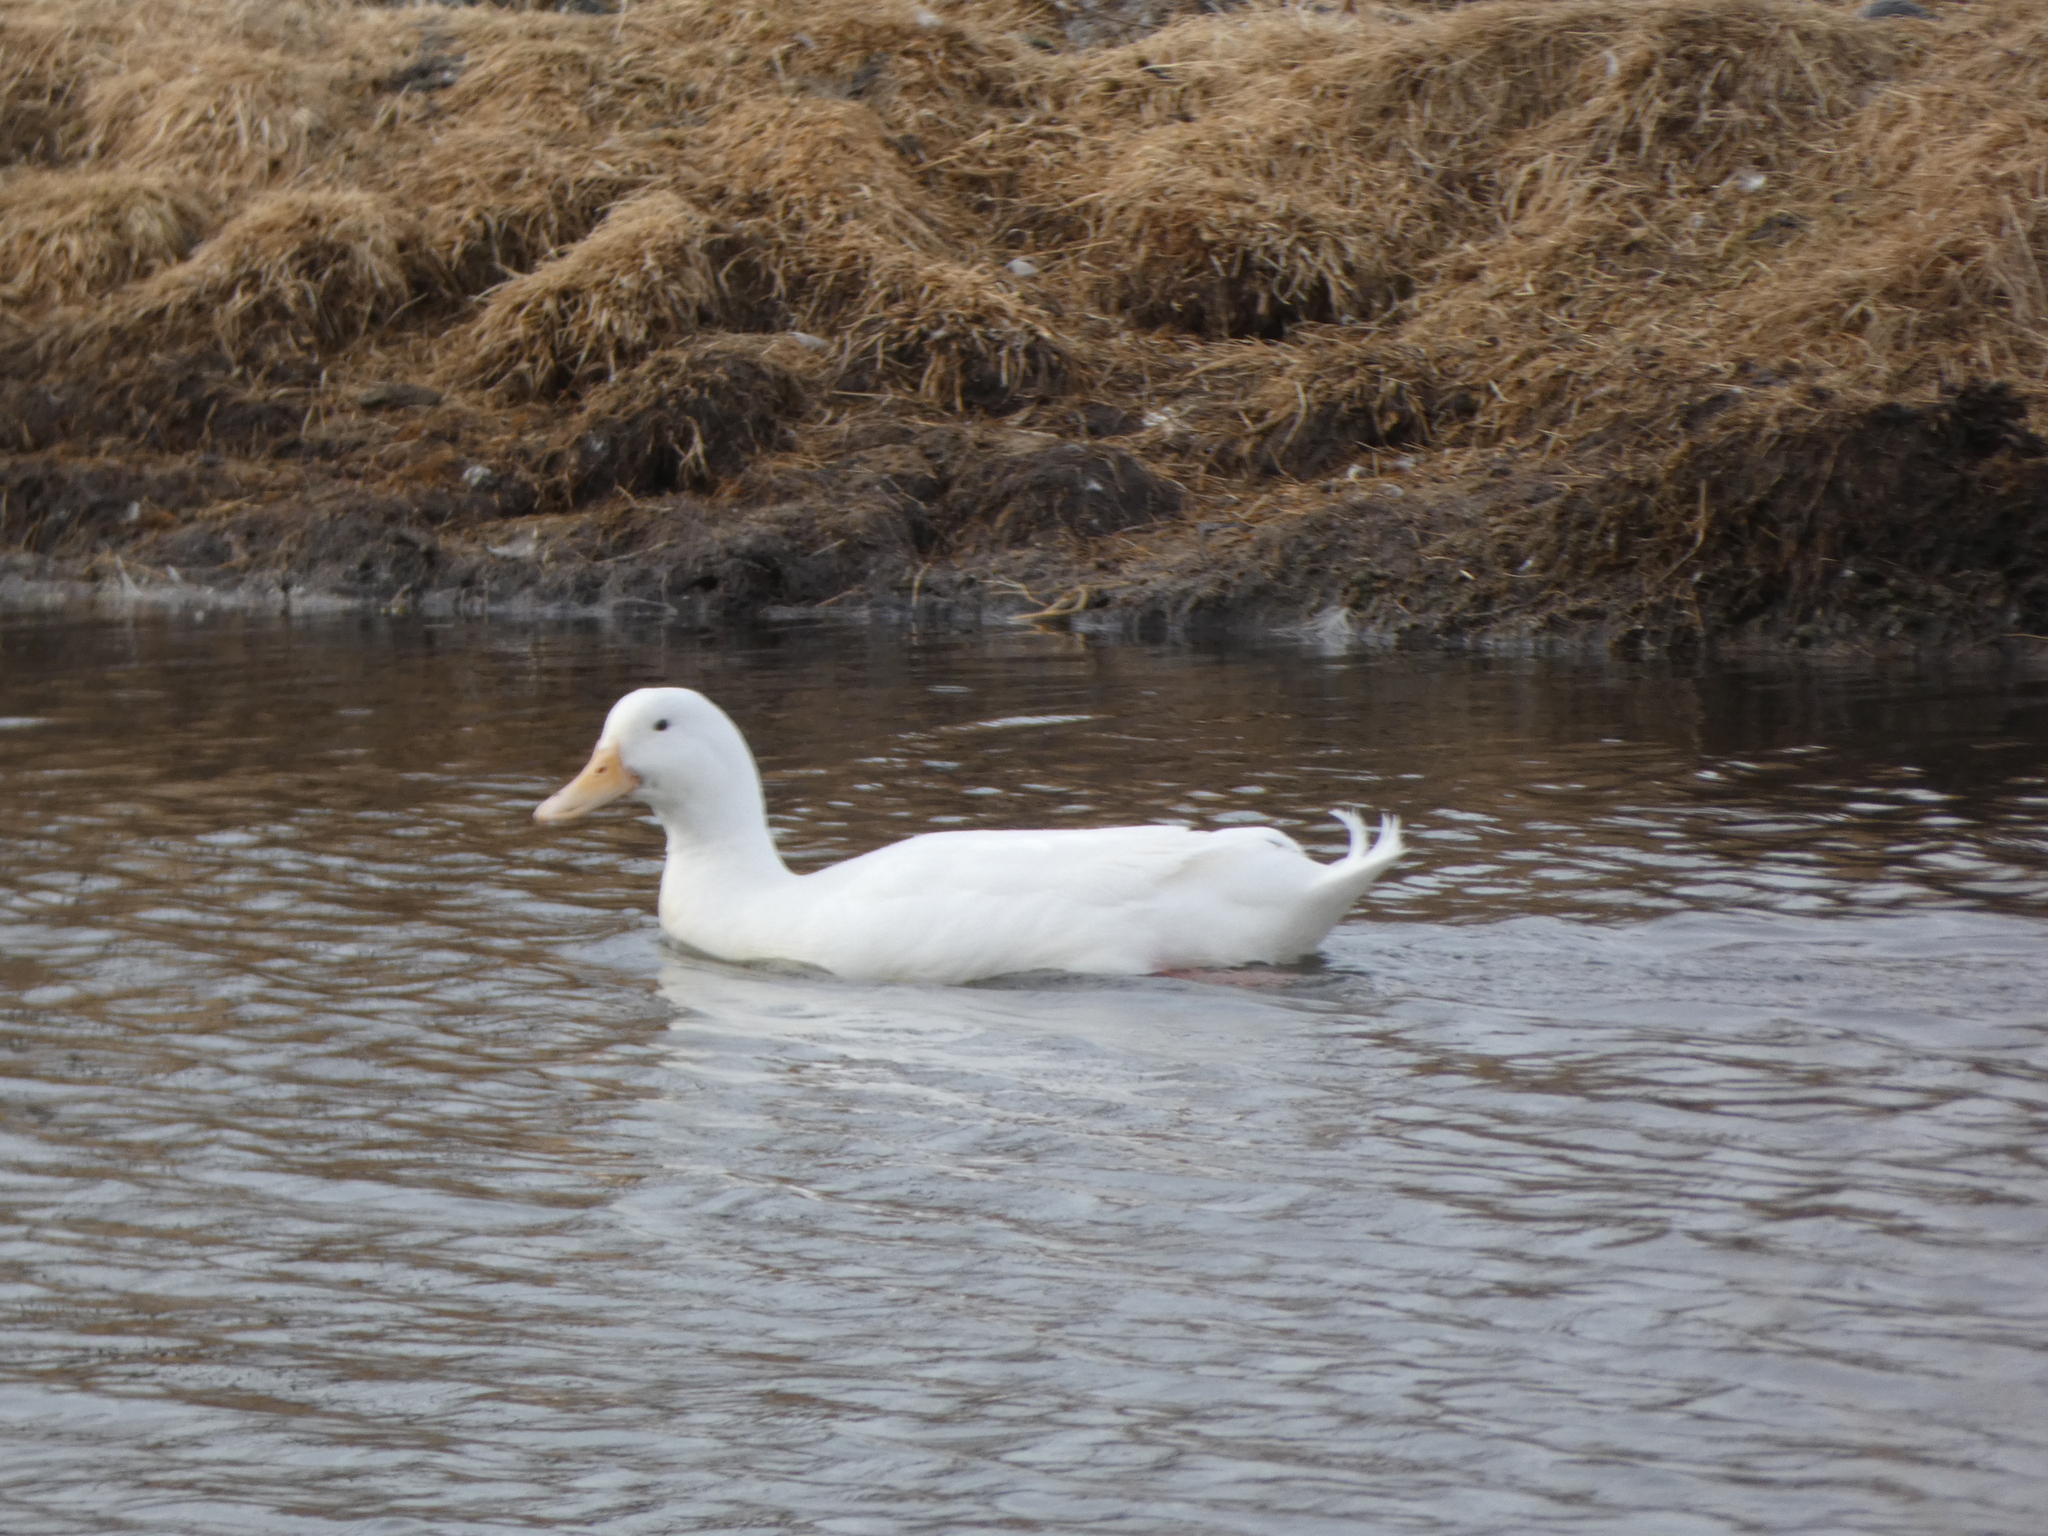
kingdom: Animalia
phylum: Chordata
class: Aves
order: Anseriformes
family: Anatidae
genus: Anas
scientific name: Anas platyrhynchos
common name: Mallard
